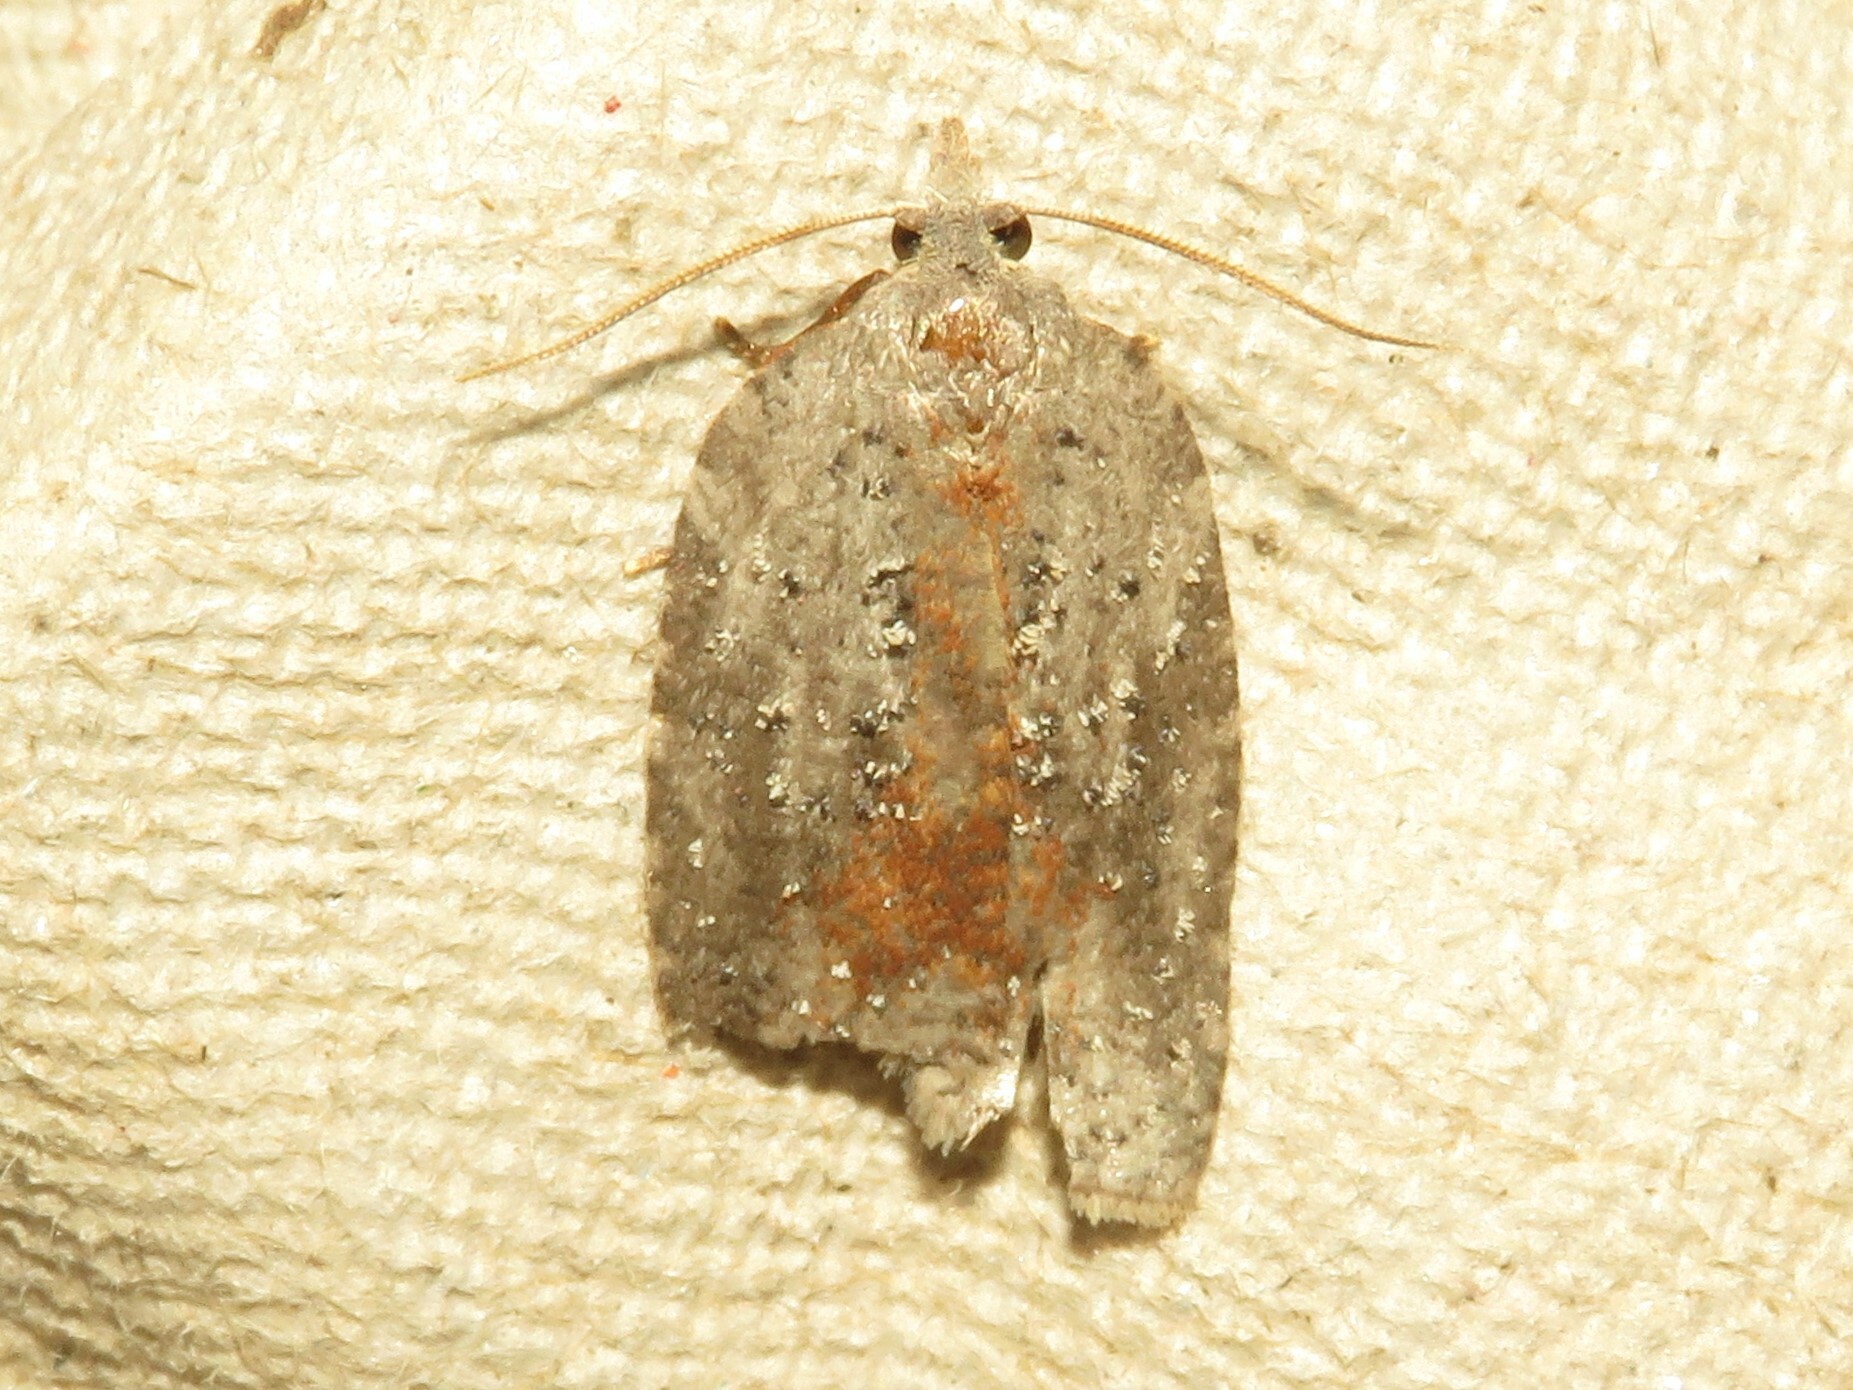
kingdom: Animalia
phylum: Arthropoda
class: Insecta
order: Lepidoptera
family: Tortricidae
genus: Amorbia
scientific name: Amorbia humerosana
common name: White-lined leafroller moth
